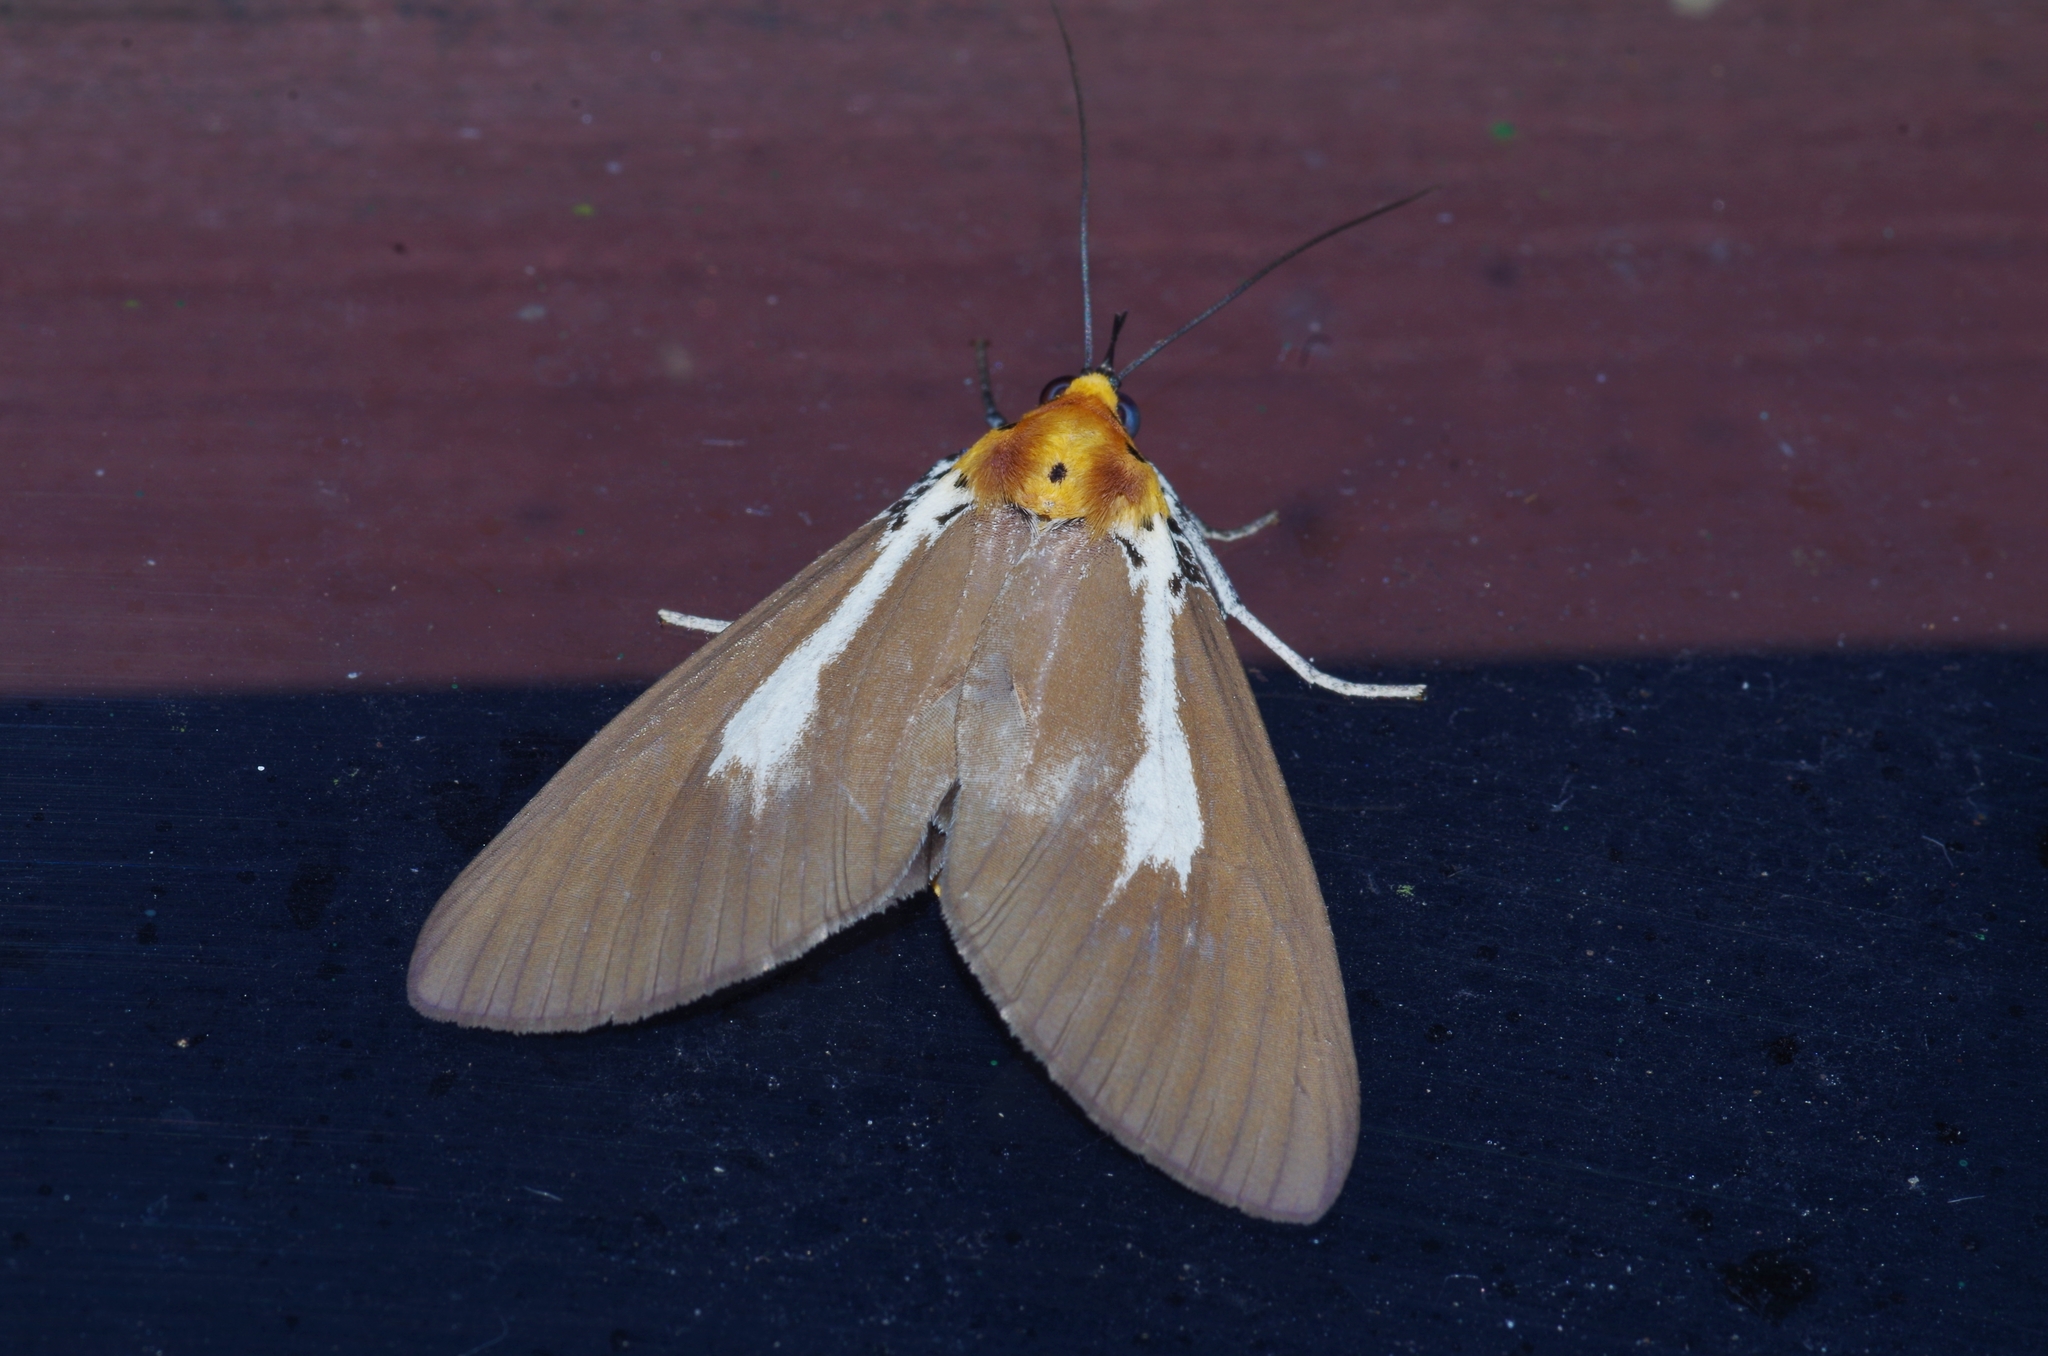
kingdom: Animalia
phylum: Arthropoda
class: Insecta
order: Lepidoptera
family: Erebidae
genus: Asota
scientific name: Asota heliconia
